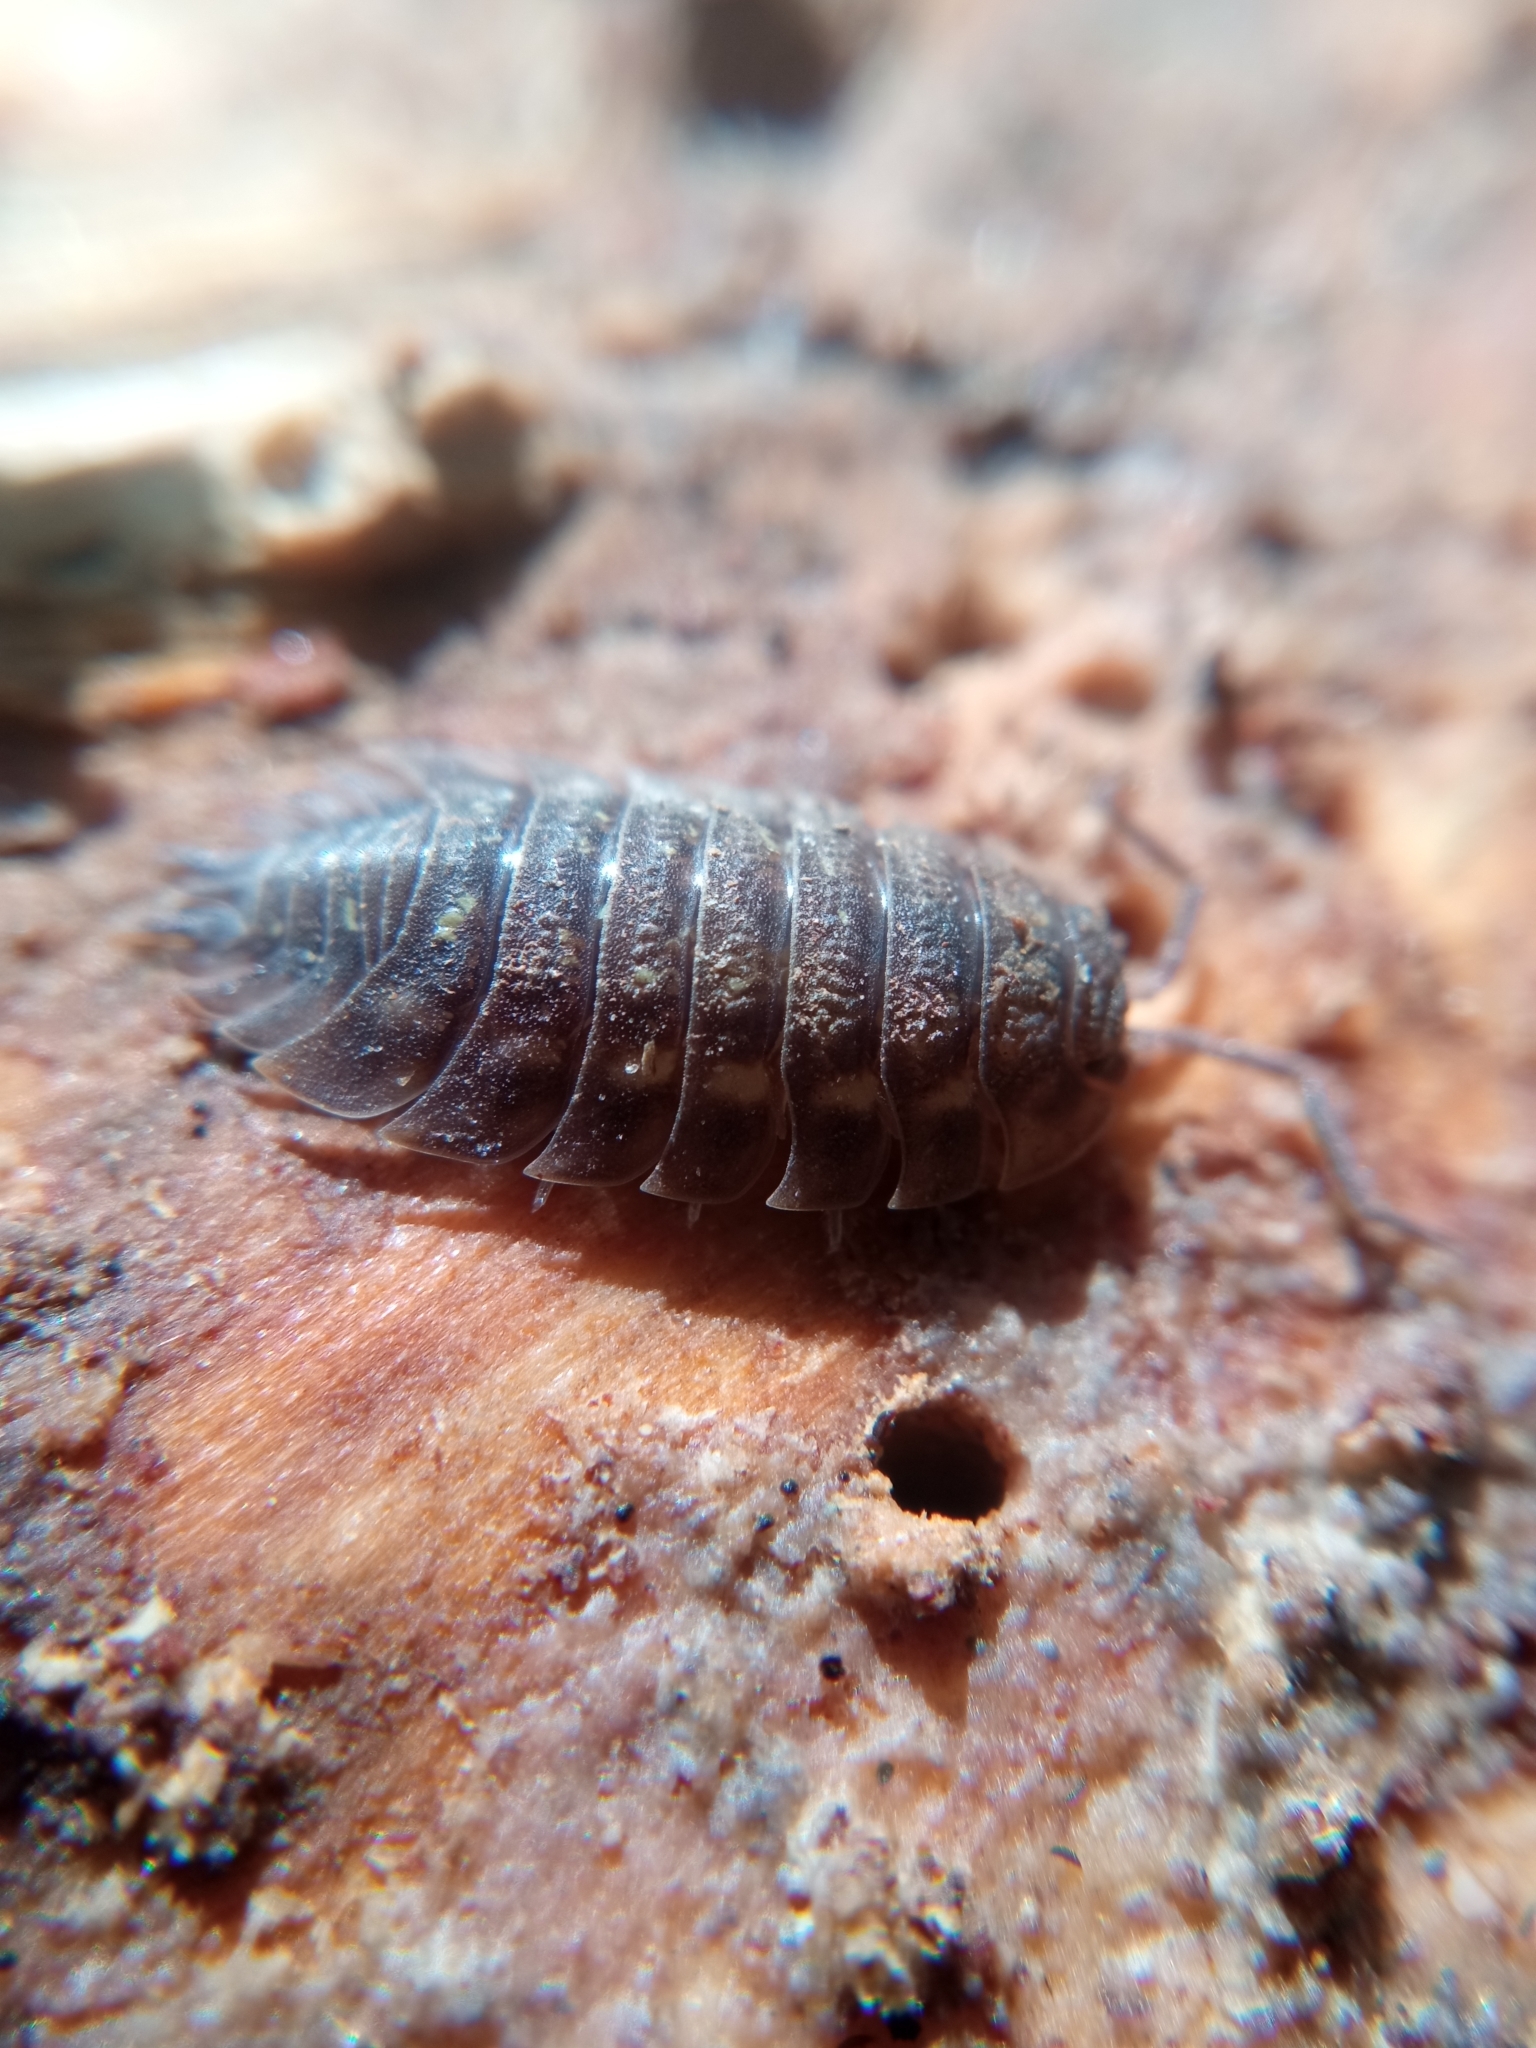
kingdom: Animalia
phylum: Arthropoda
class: Malacostraca
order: Isopoda
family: Oniscidae
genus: Oniscus
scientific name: Oniscus asellus
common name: Common shiny woodlouse
